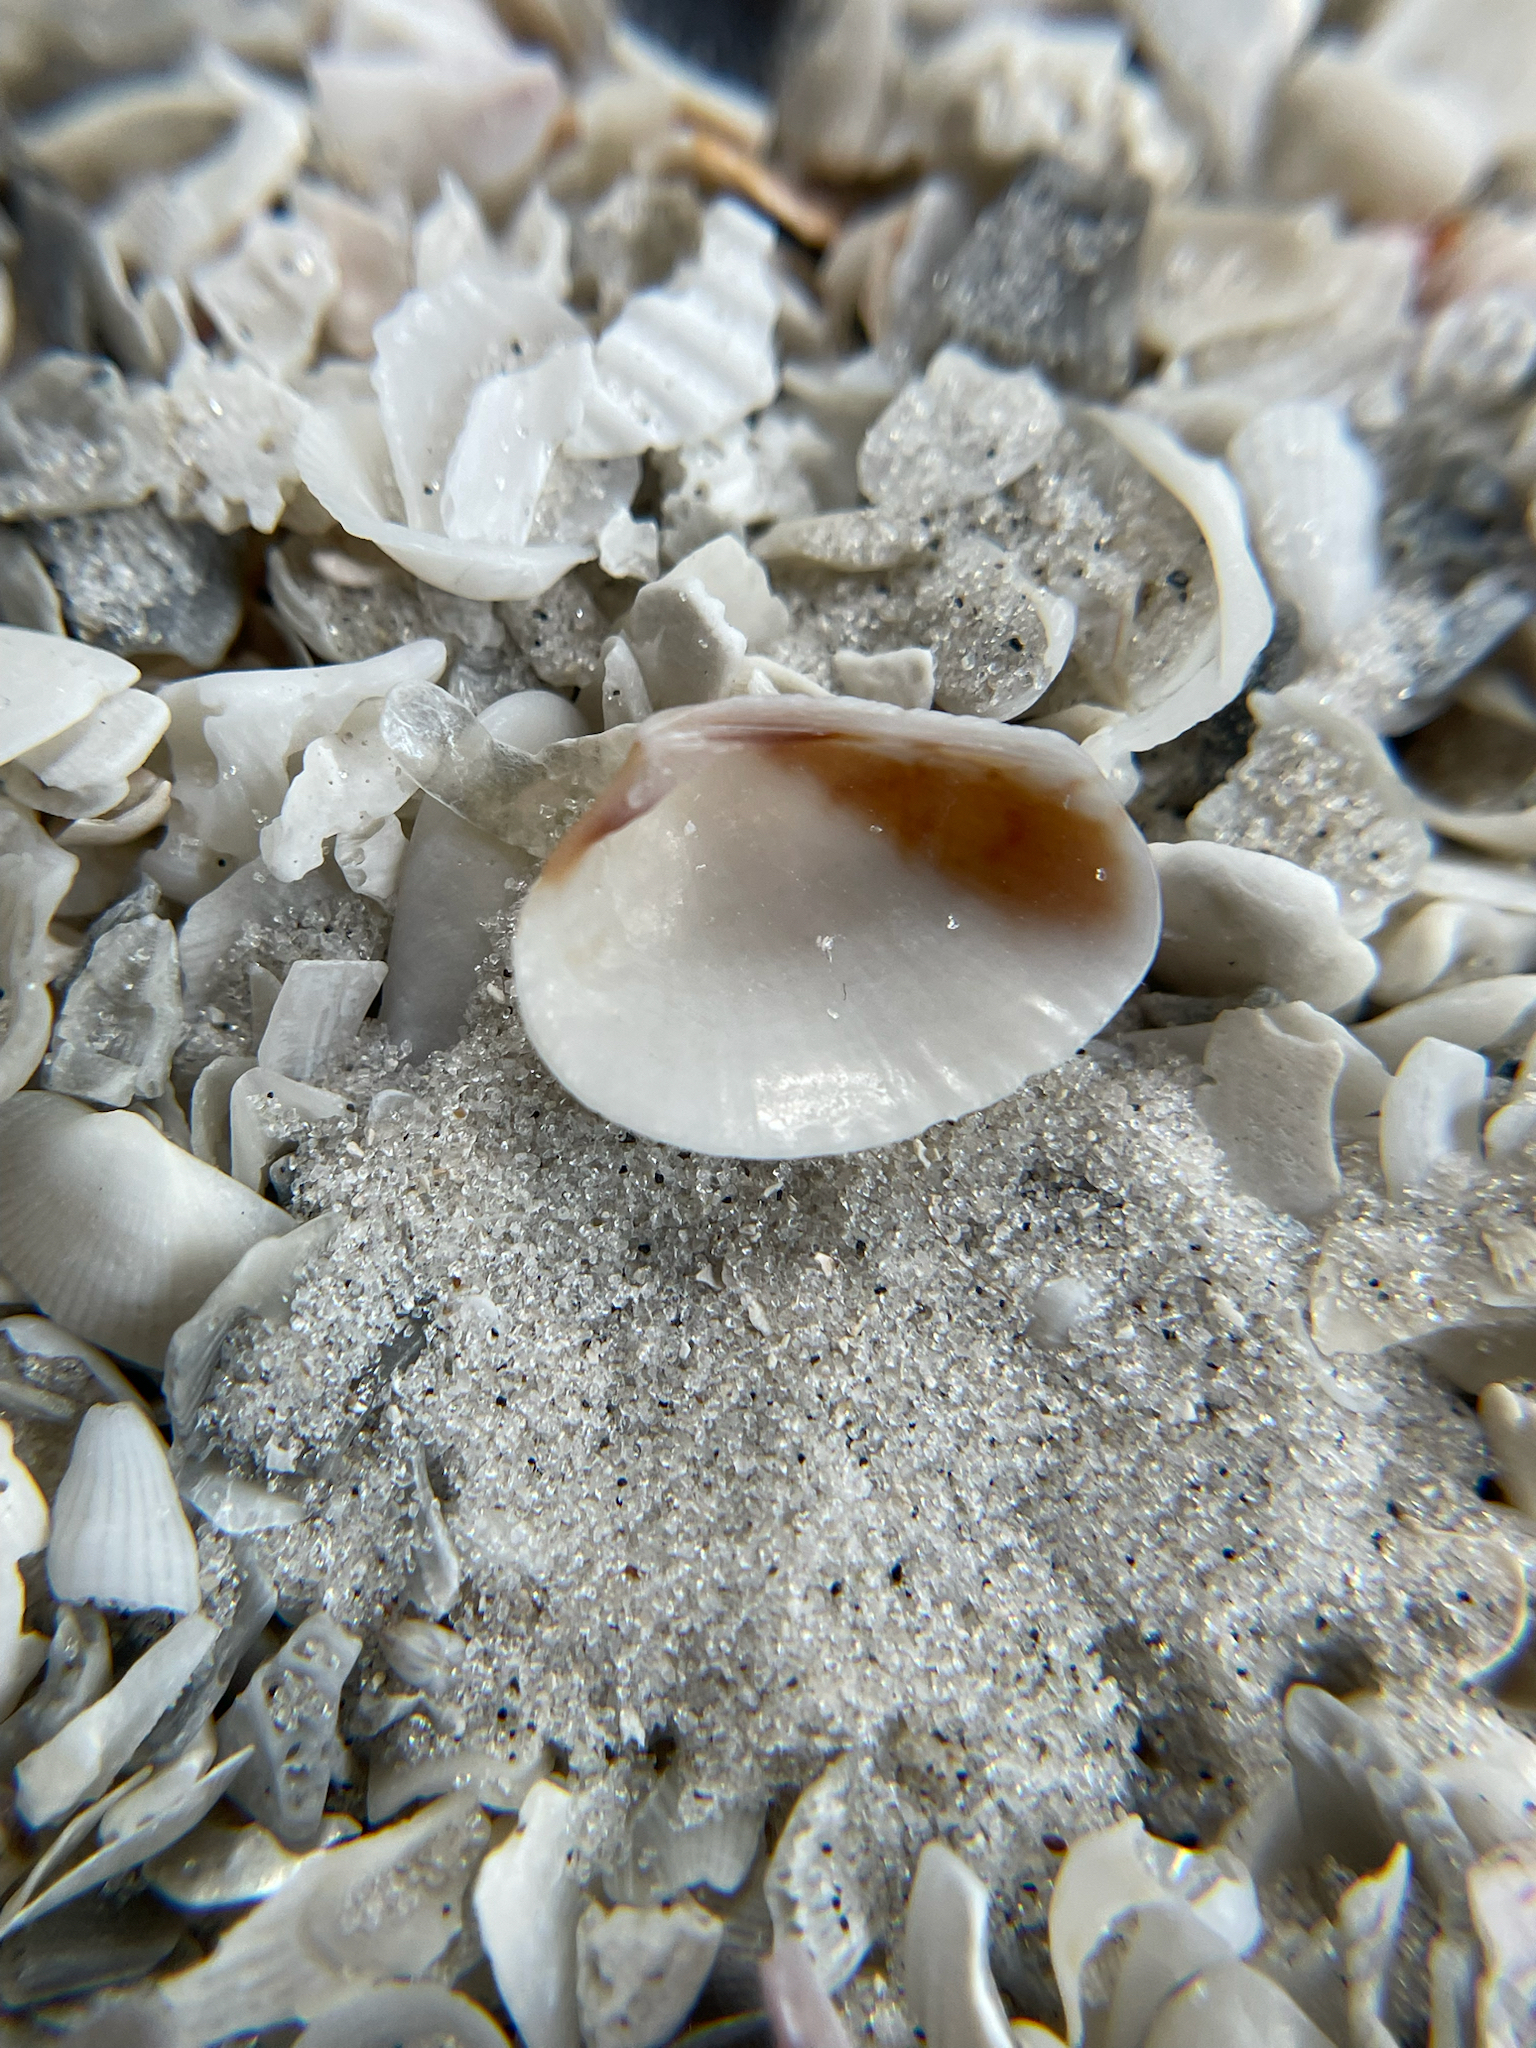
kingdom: Animalia
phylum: Mollusca
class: Bivalvia
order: Venerida
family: Veneridae
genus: Chioneryx
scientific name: Chioneryx grus
